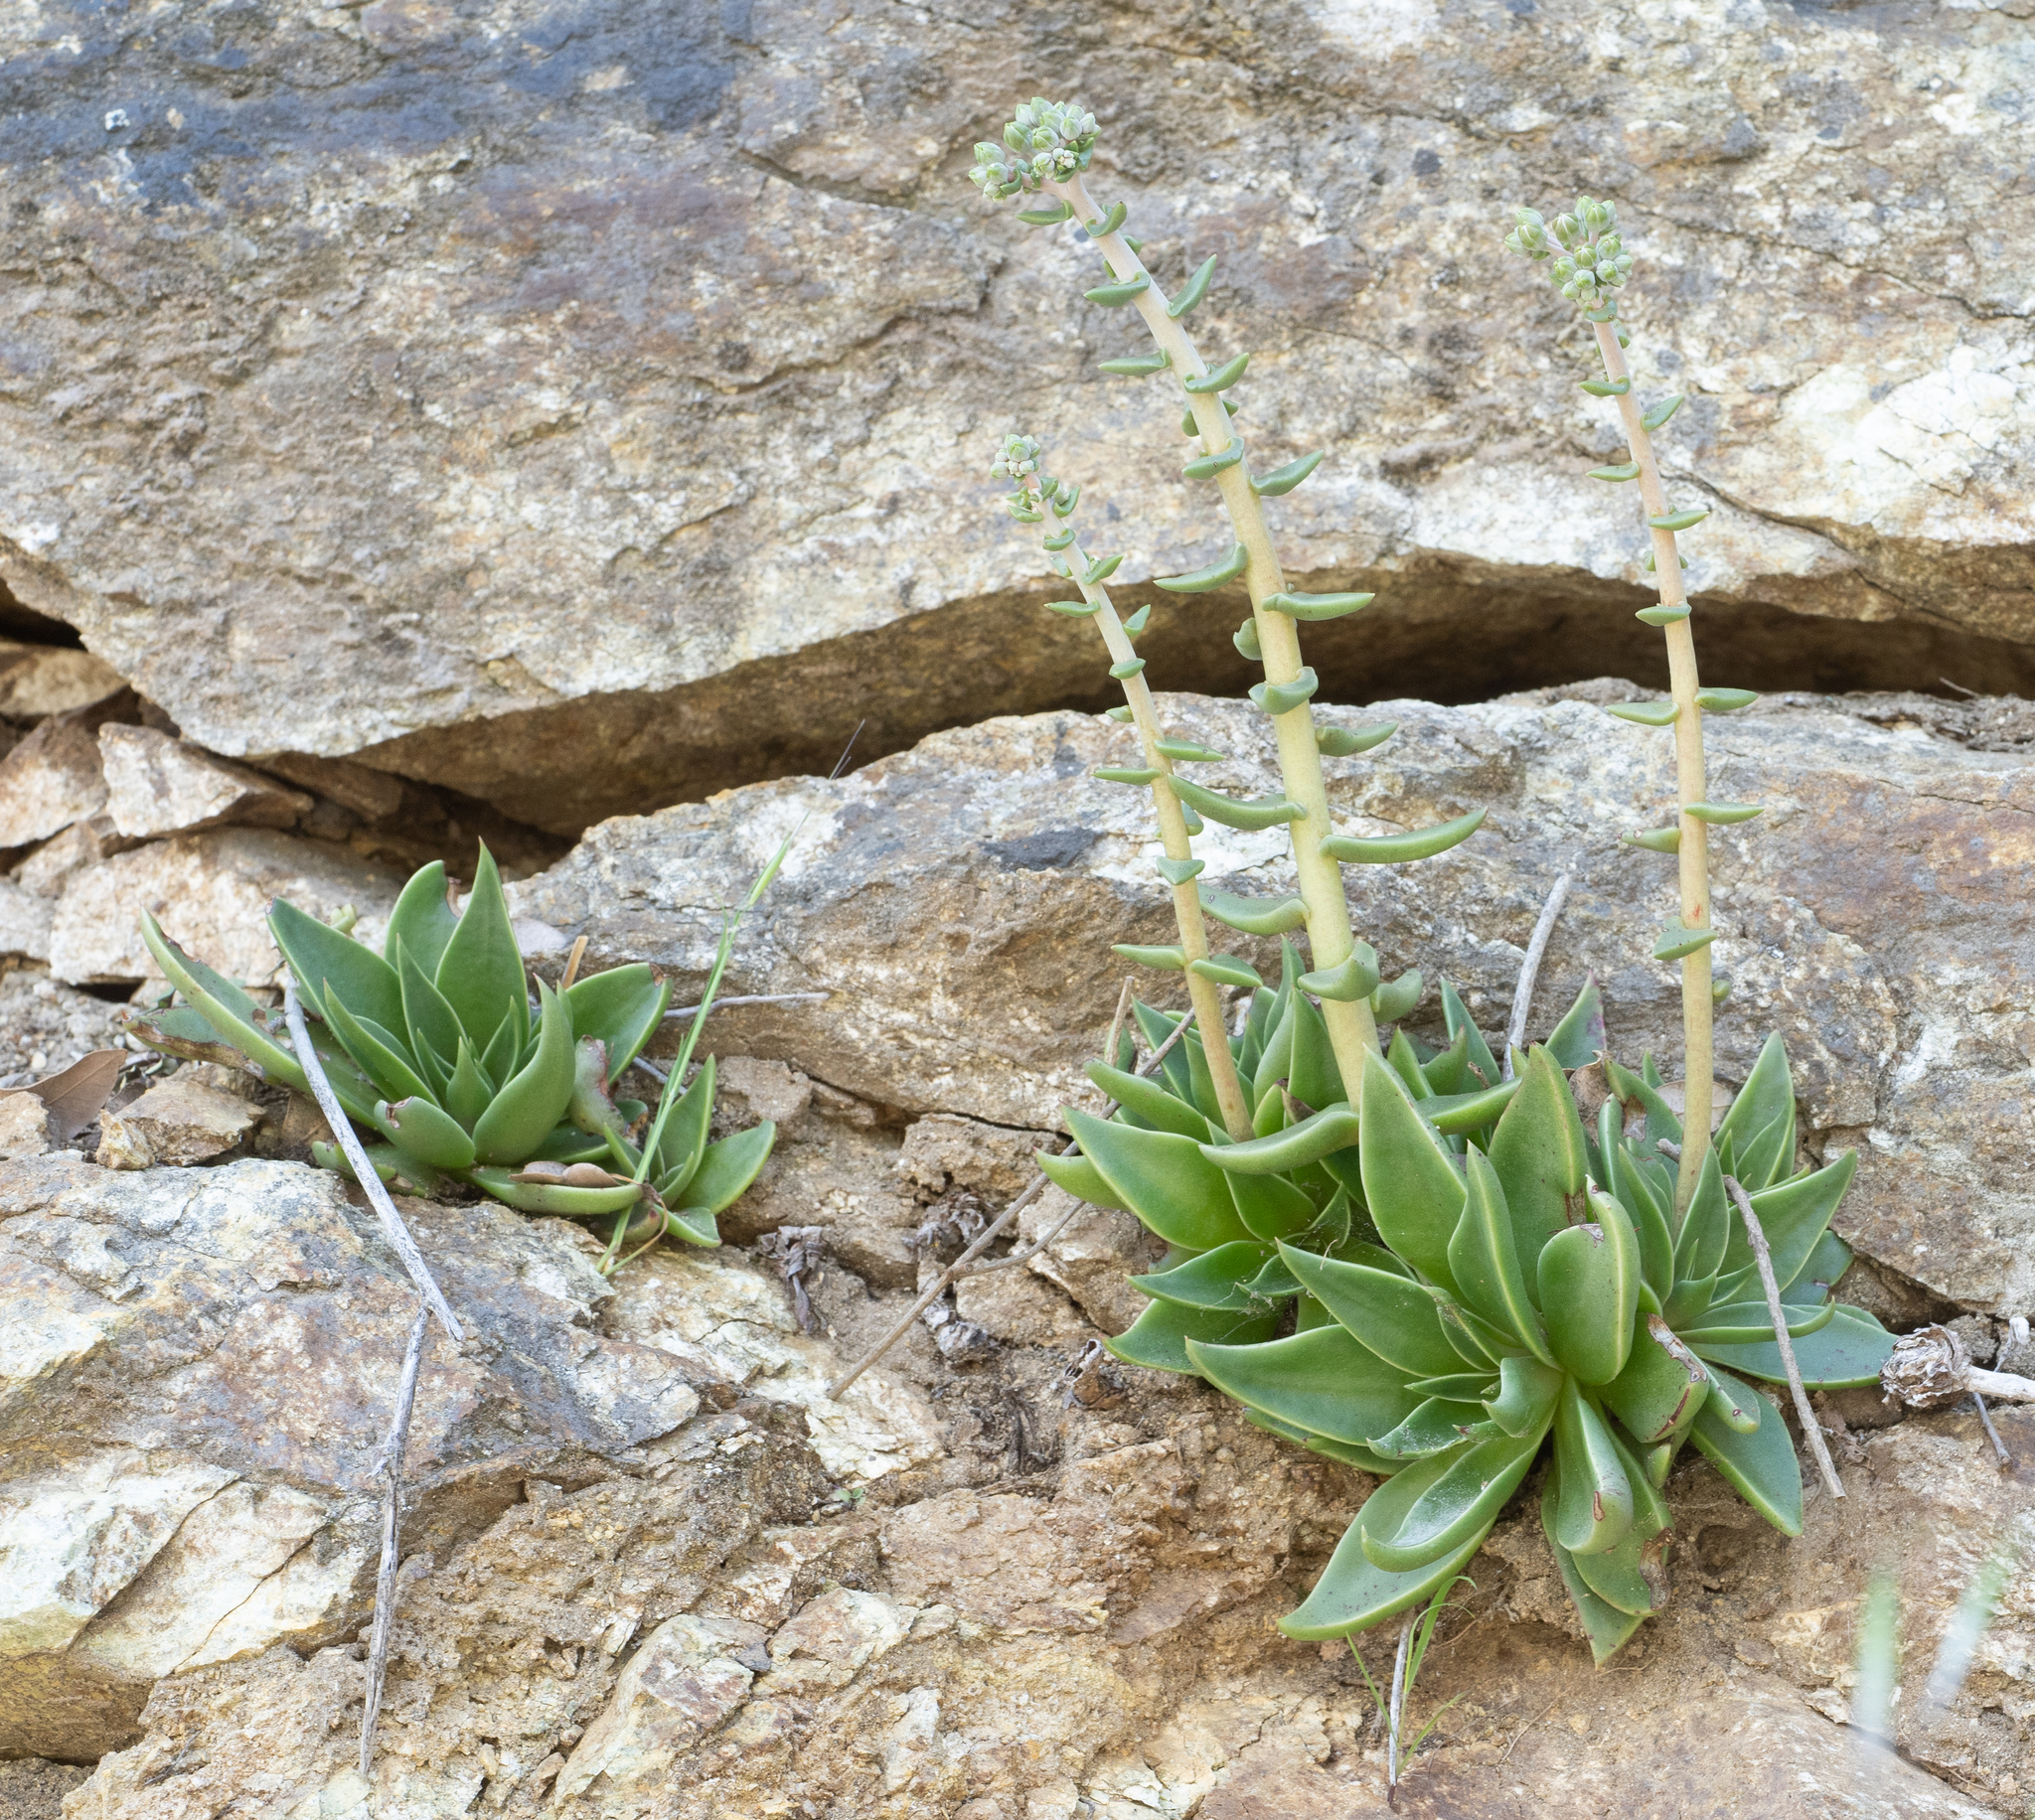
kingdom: Plantae
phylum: Tracheophyta
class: Magnoliopsida
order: Saxifragales
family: Crassulaceae
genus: Dudleya
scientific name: Dudleya lanceolata
